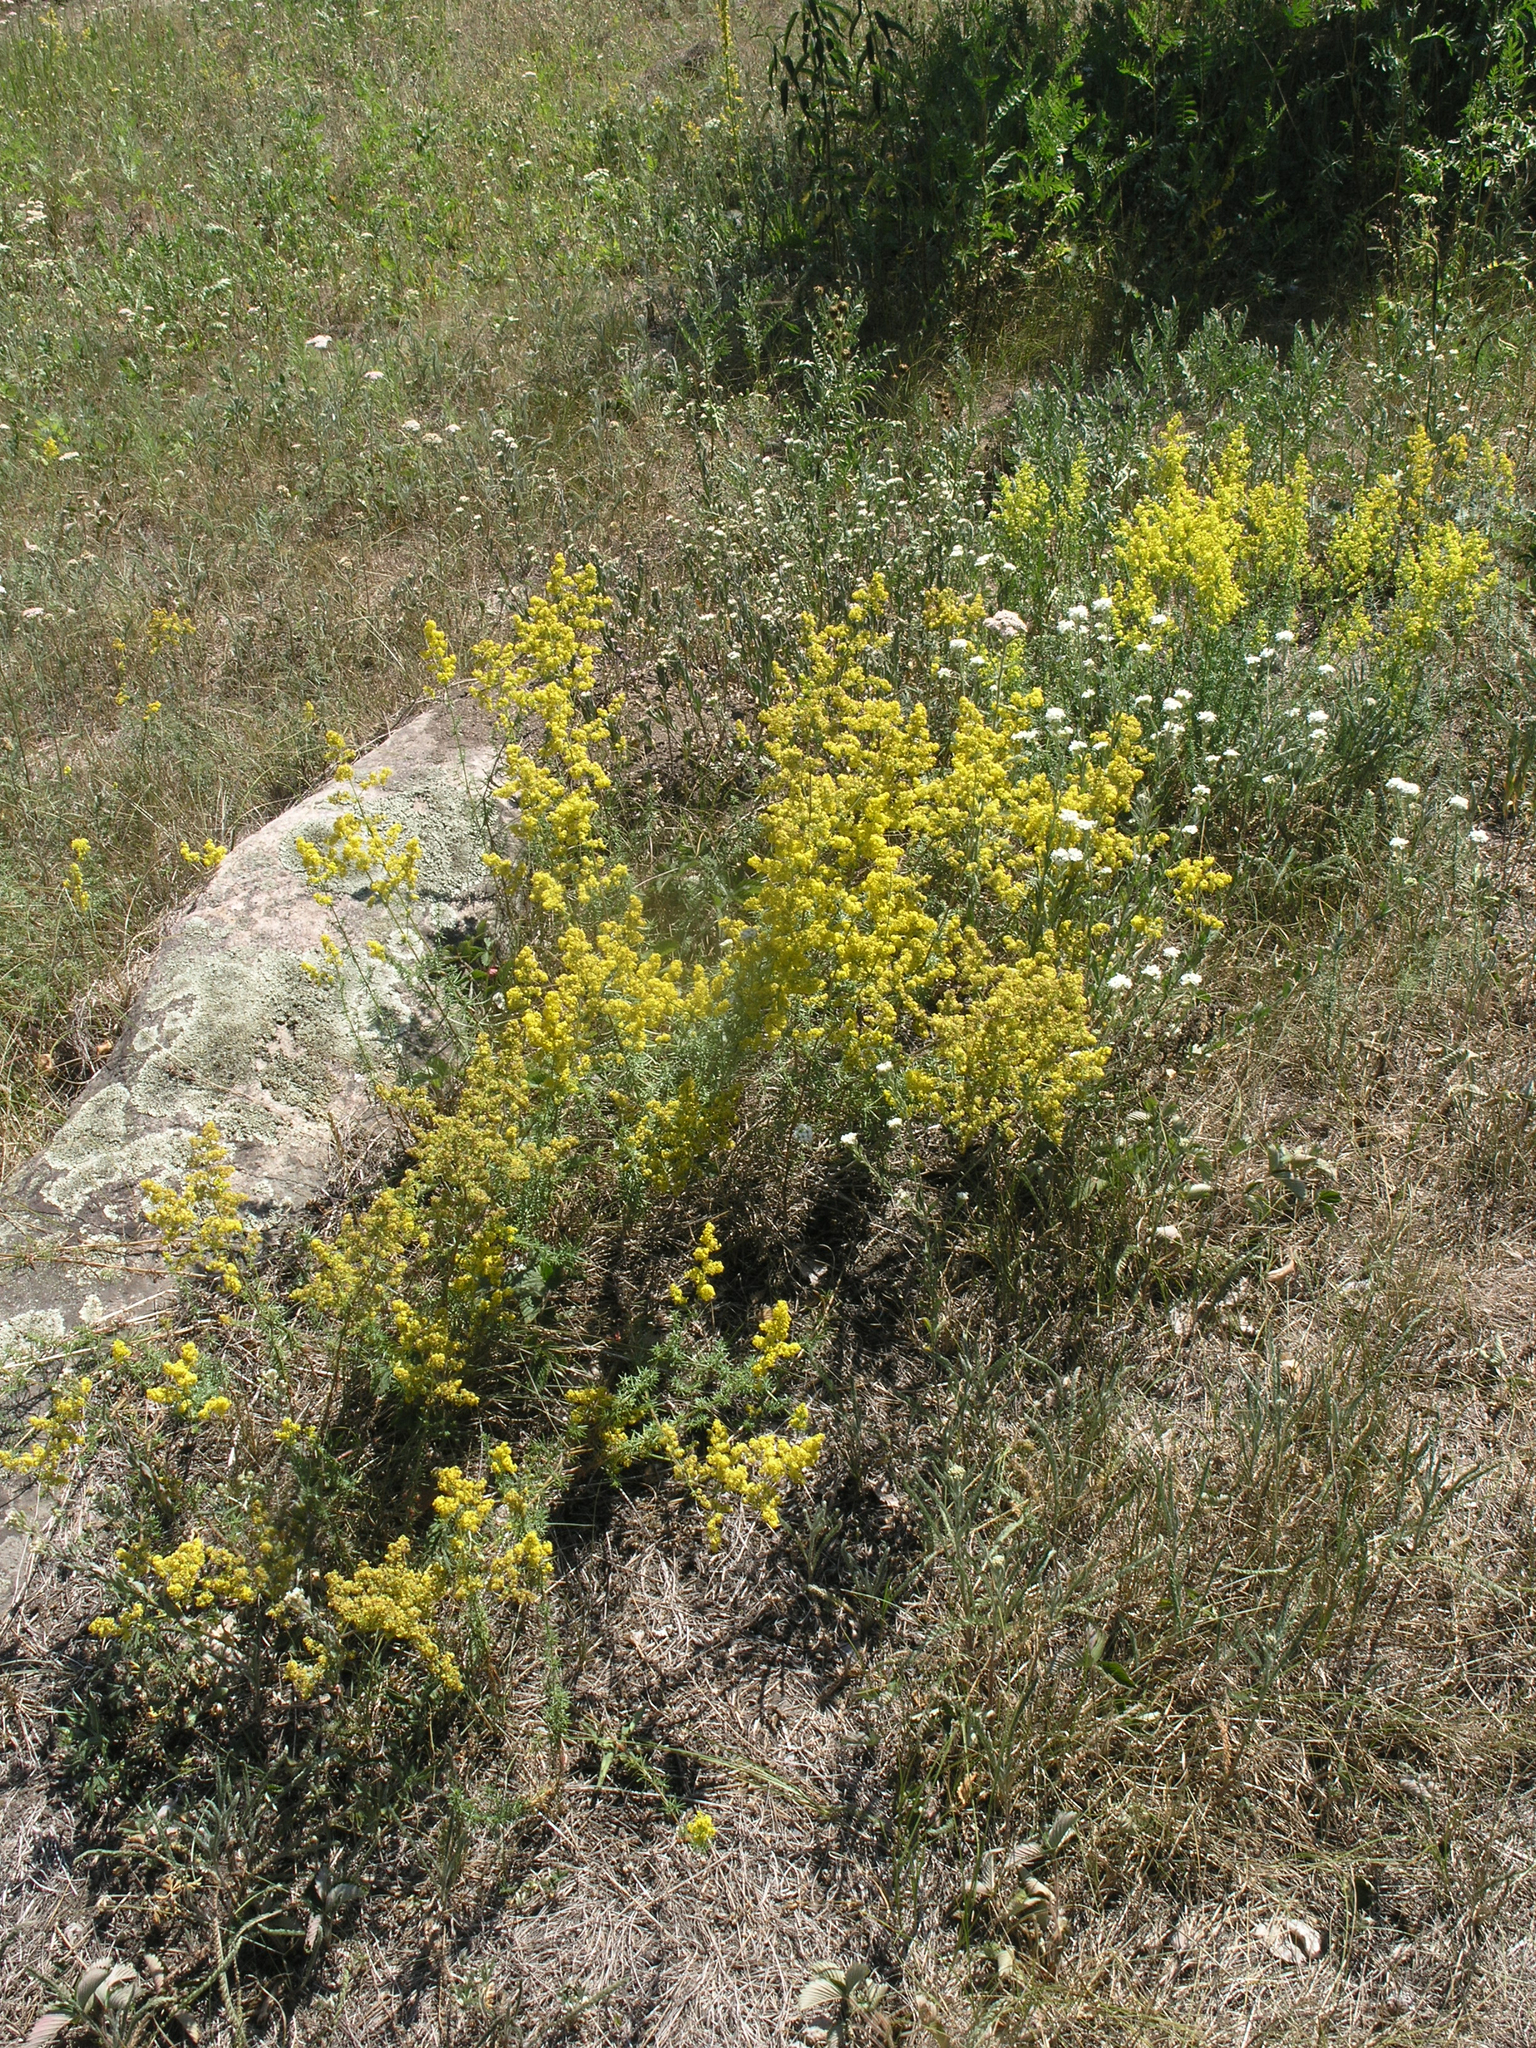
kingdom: Plantae
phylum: Tracheophyta
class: Magnoliopsida
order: Gentianales
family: Rubiaceae
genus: Galium
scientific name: Galium verum
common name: Lady's bedstraw
